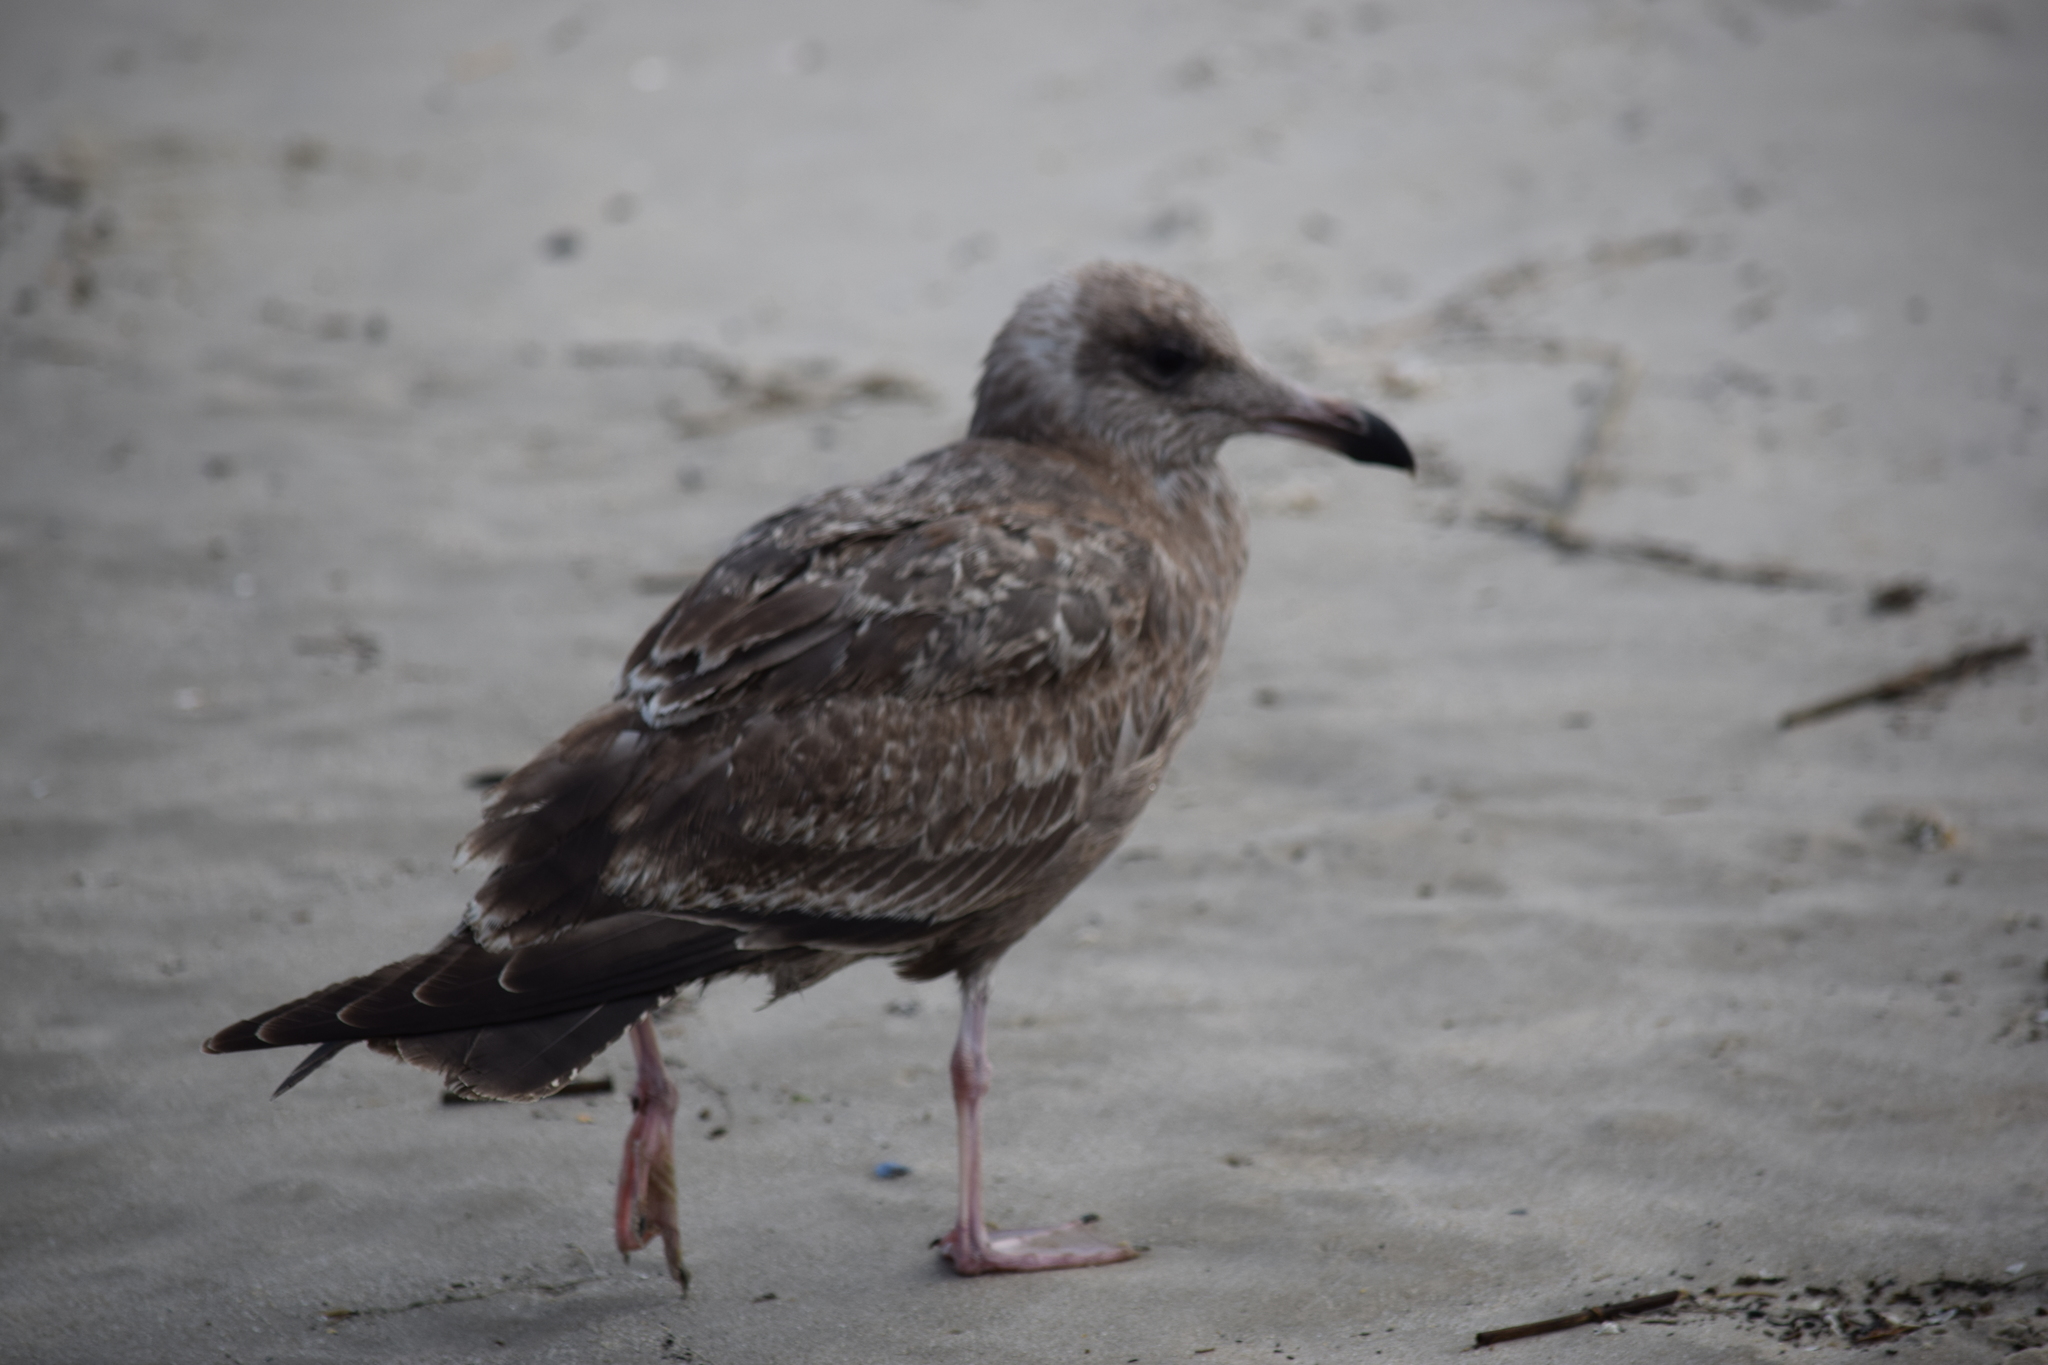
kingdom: Animalia
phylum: Chordata
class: Aves
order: Charadriiformes
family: Laridae
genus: Larus
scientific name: Larus smithsonianus
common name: American herring gull
